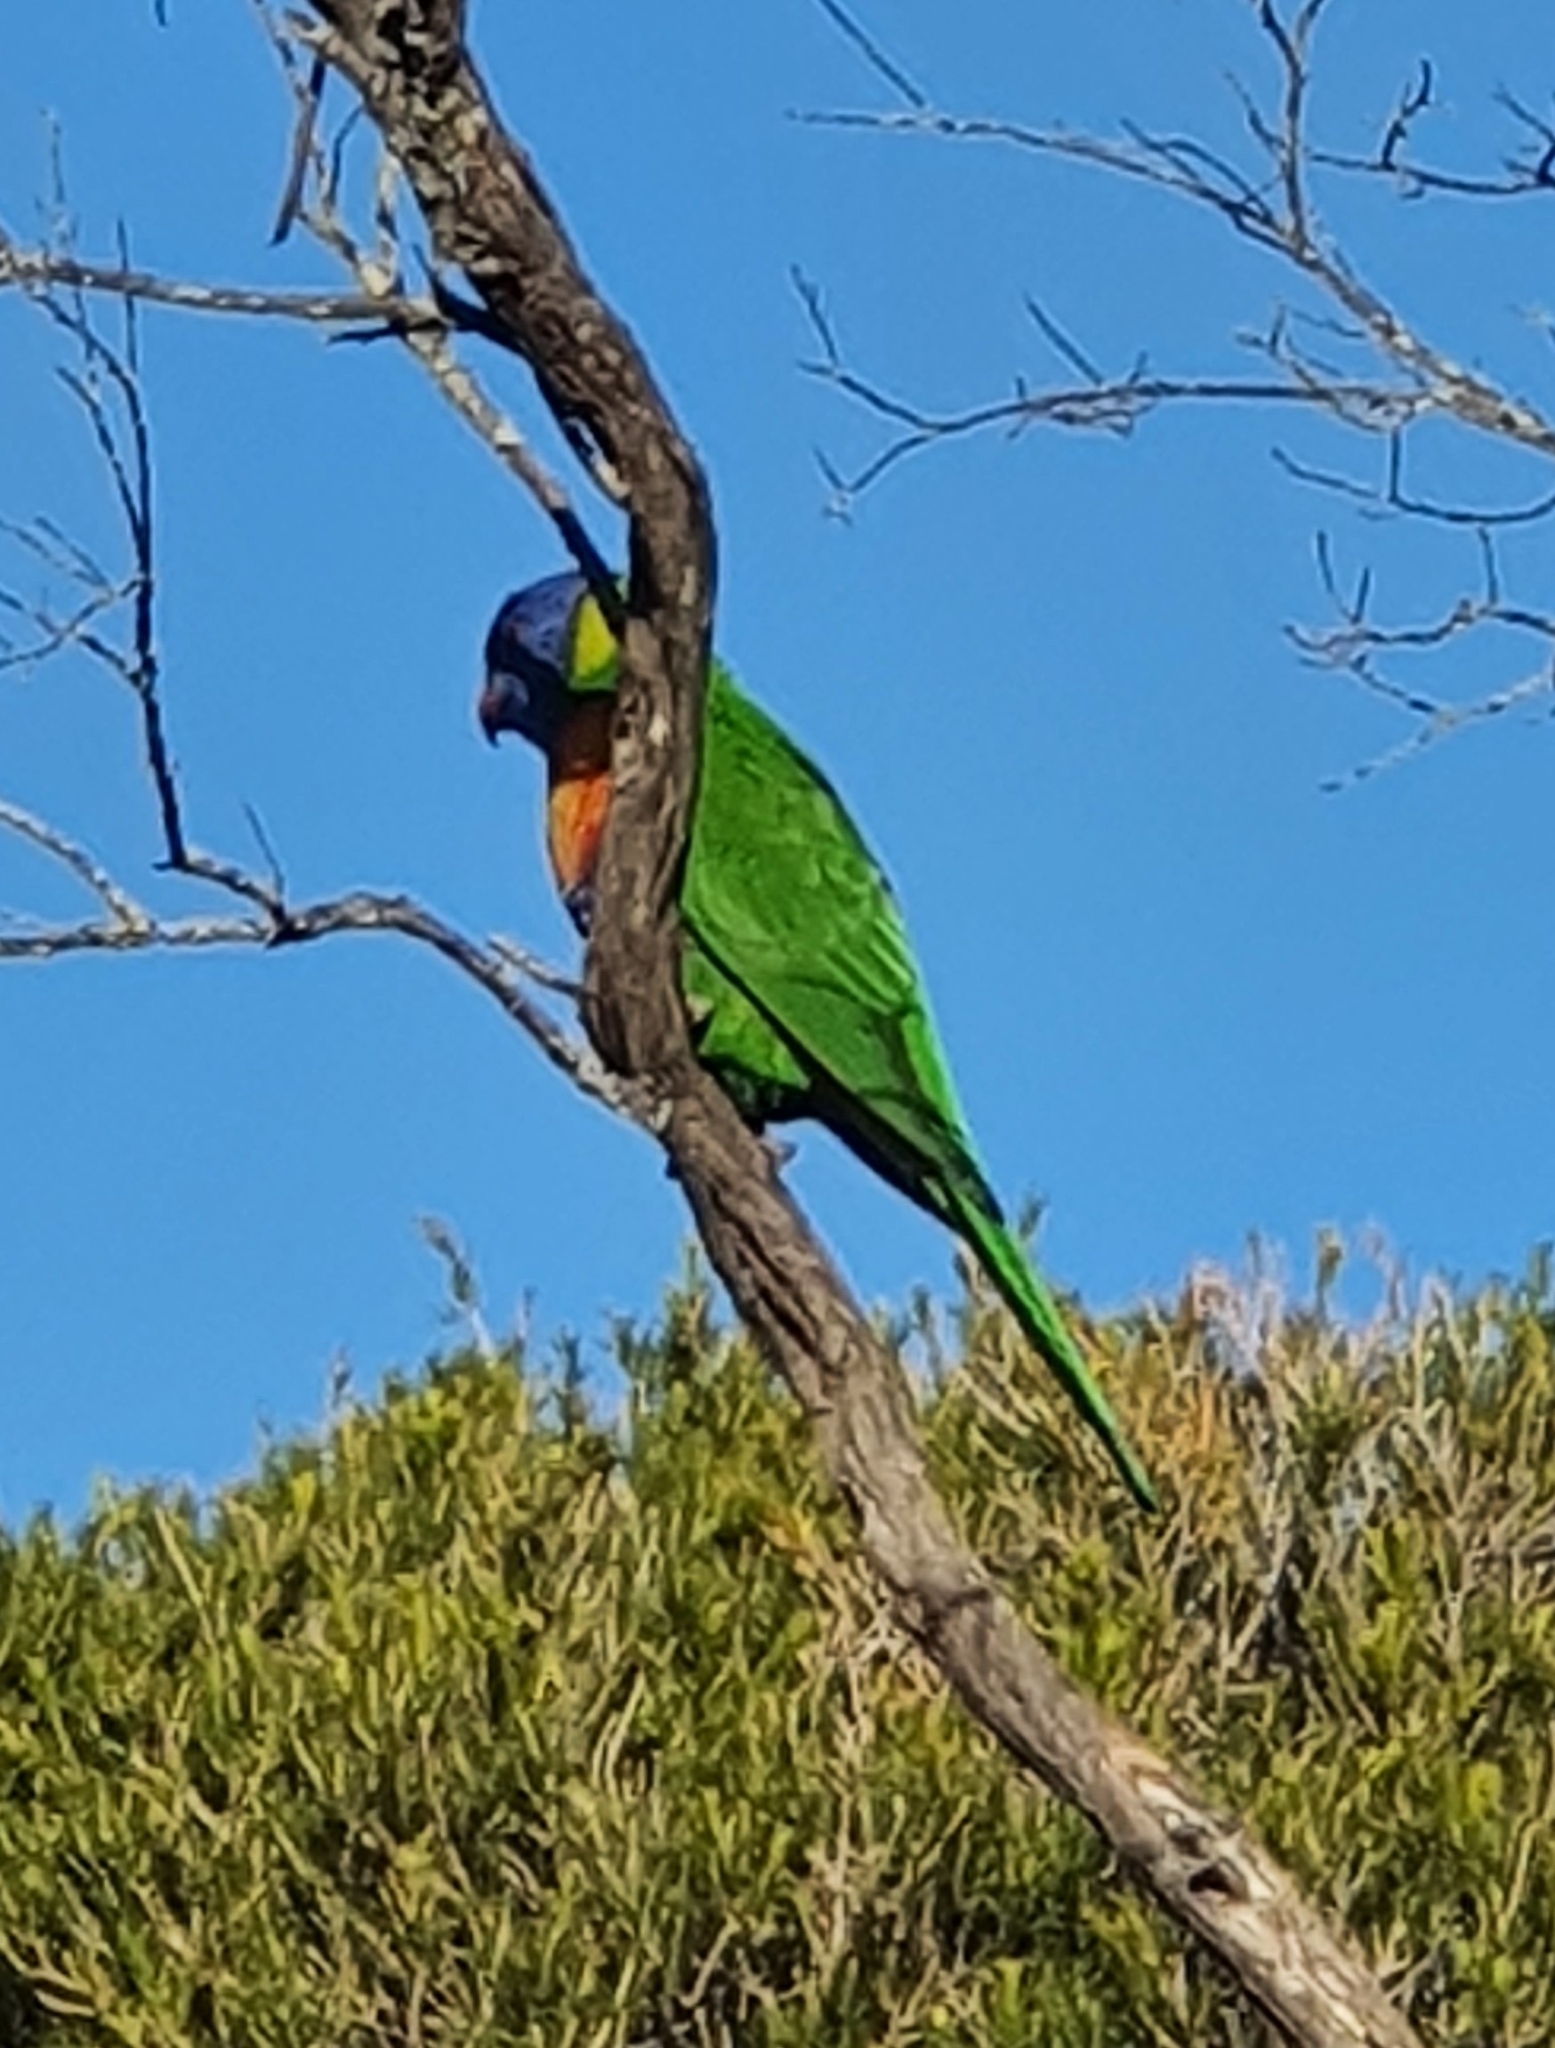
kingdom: Animalia
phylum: Chordata
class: Aves
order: Psittaciformes
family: Psittacidae
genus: Trichoglossus
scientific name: Trichoglossus haematodus
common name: Coconut lorikeet
